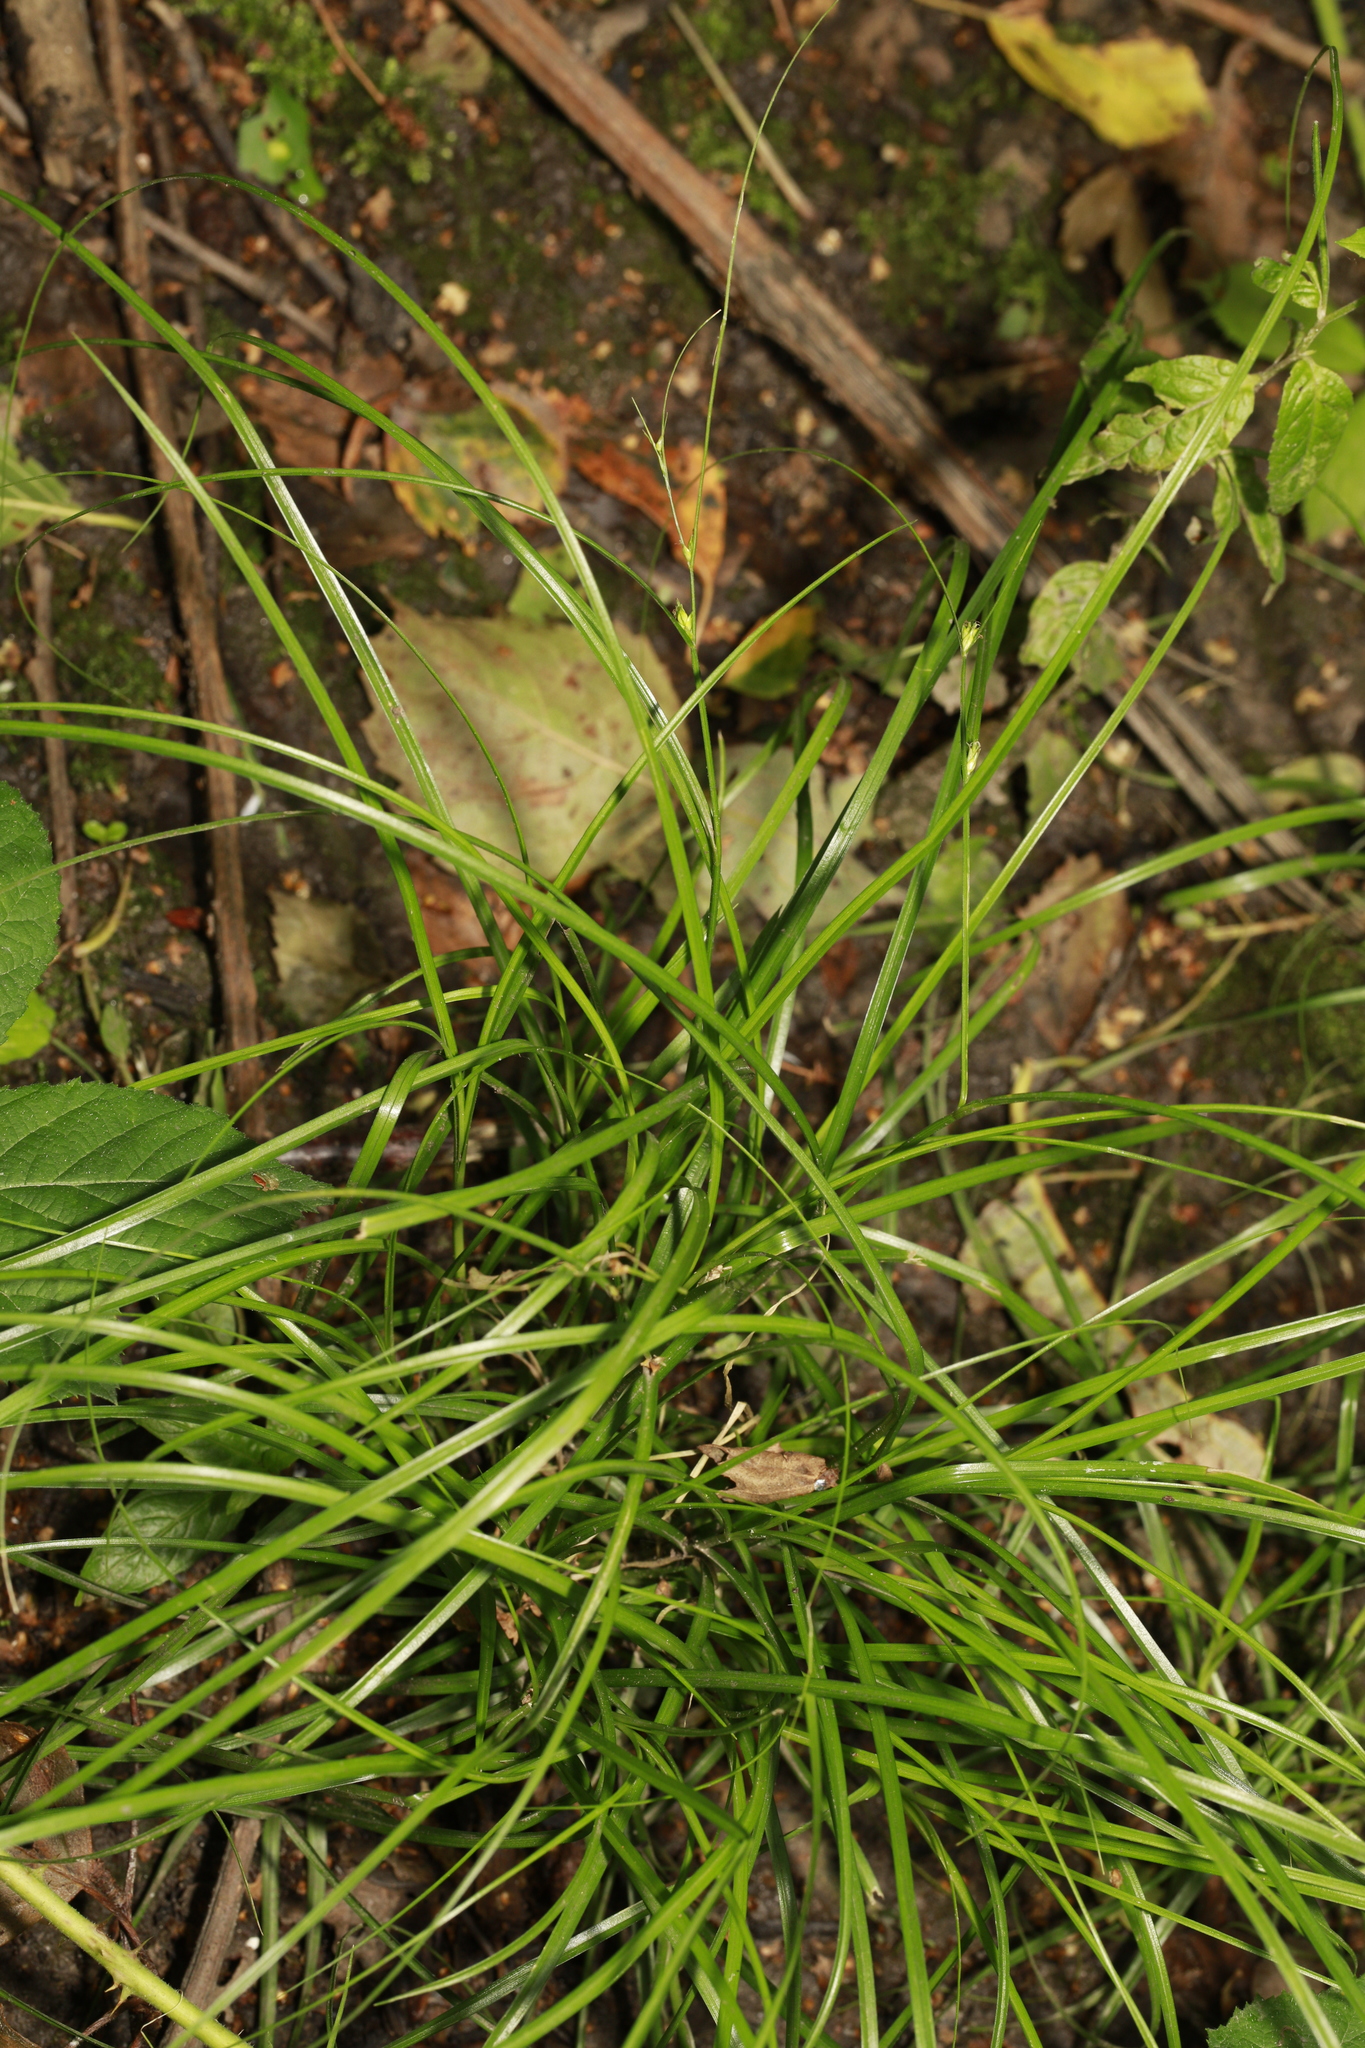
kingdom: Plantae
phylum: Tracheophyta
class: Liliopsida
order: Poales
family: Cyperaceae
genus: Carex
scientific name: Carex remota
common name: Remote sedge
